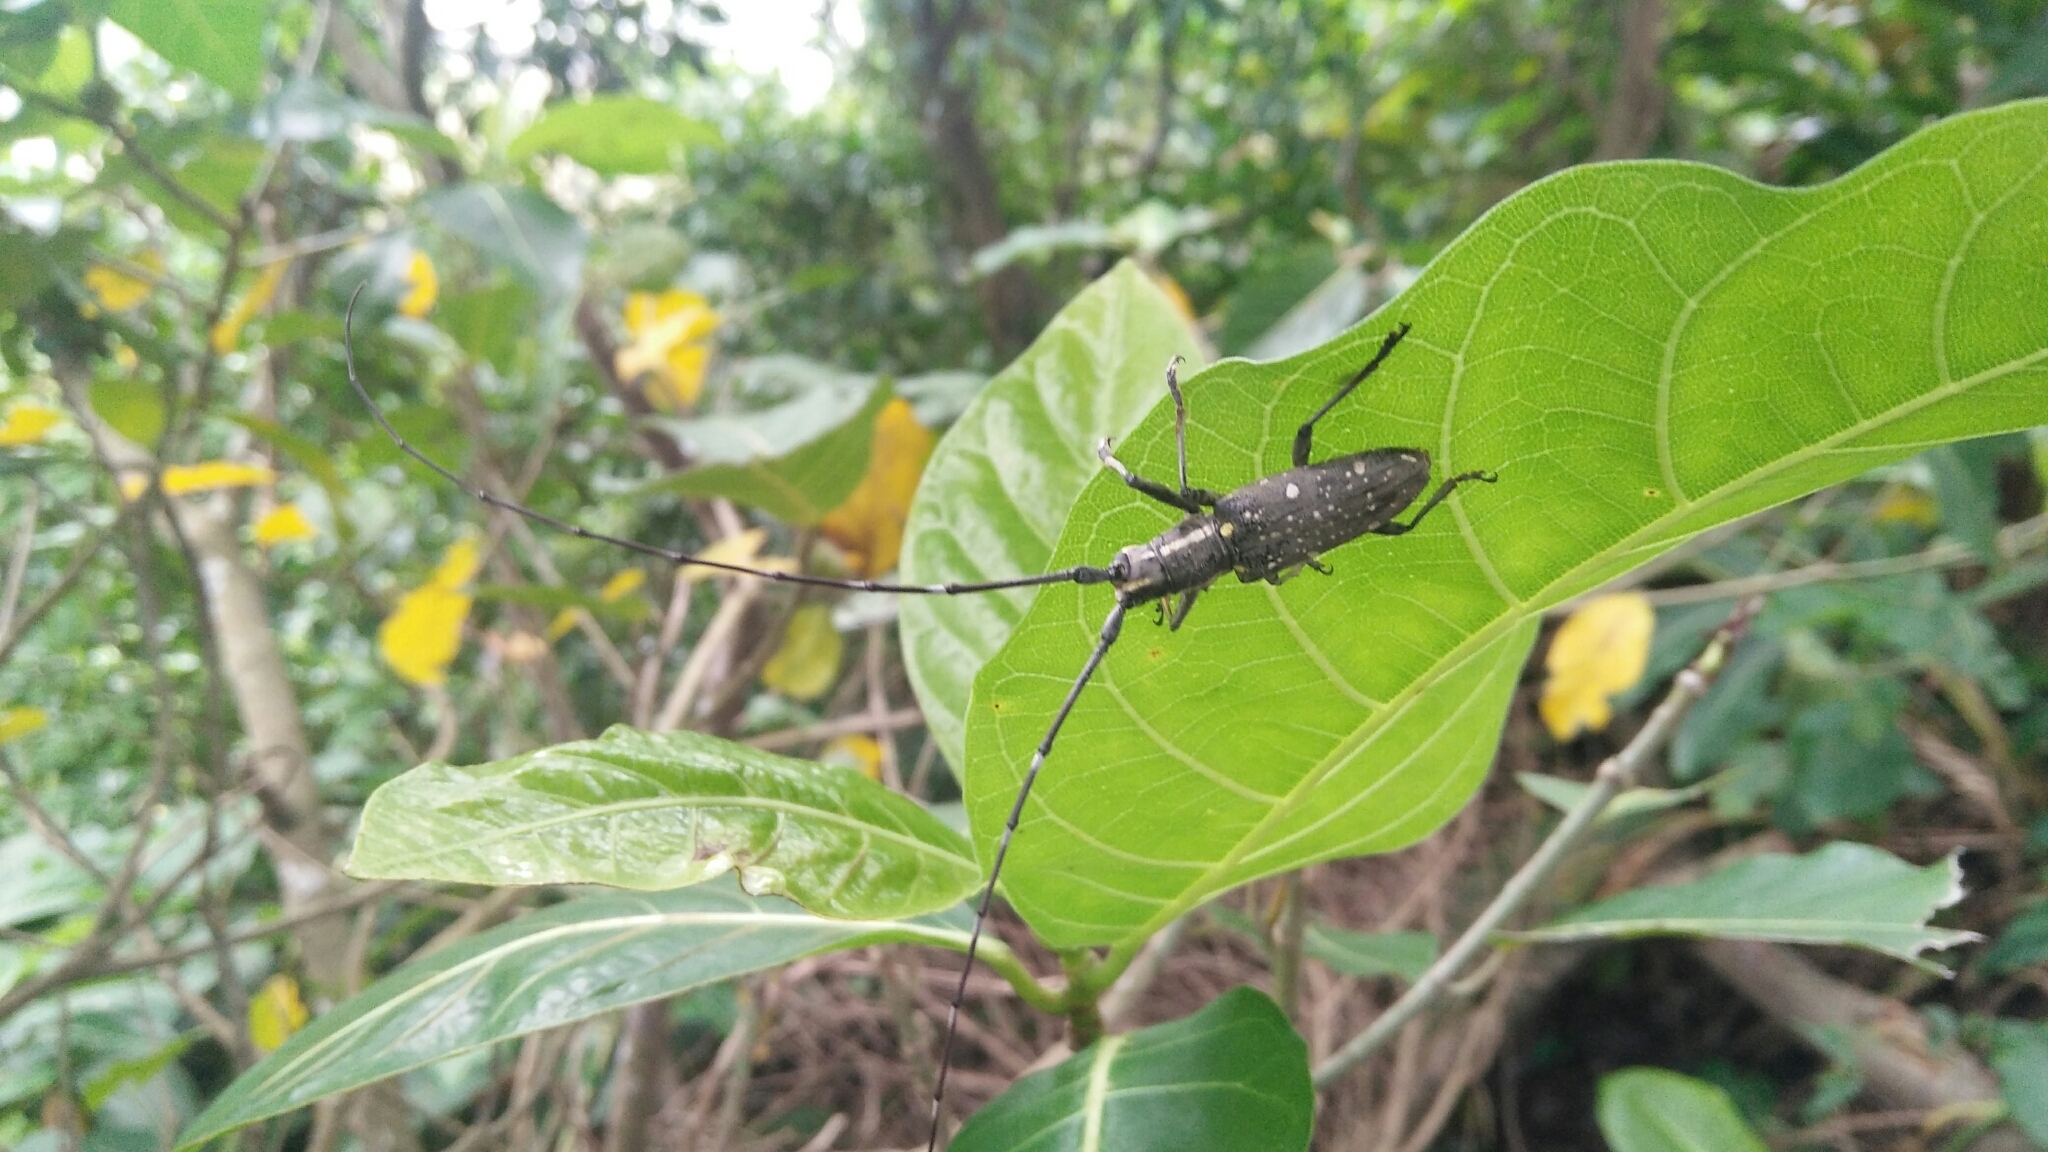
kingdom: Animalia
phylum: Arthropoda
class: Insecta
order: Coleoptera
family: Cerambycidae
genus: Psacothea
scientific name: Psacothea hilaris
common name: Yellow-spotted longicorn beetle
